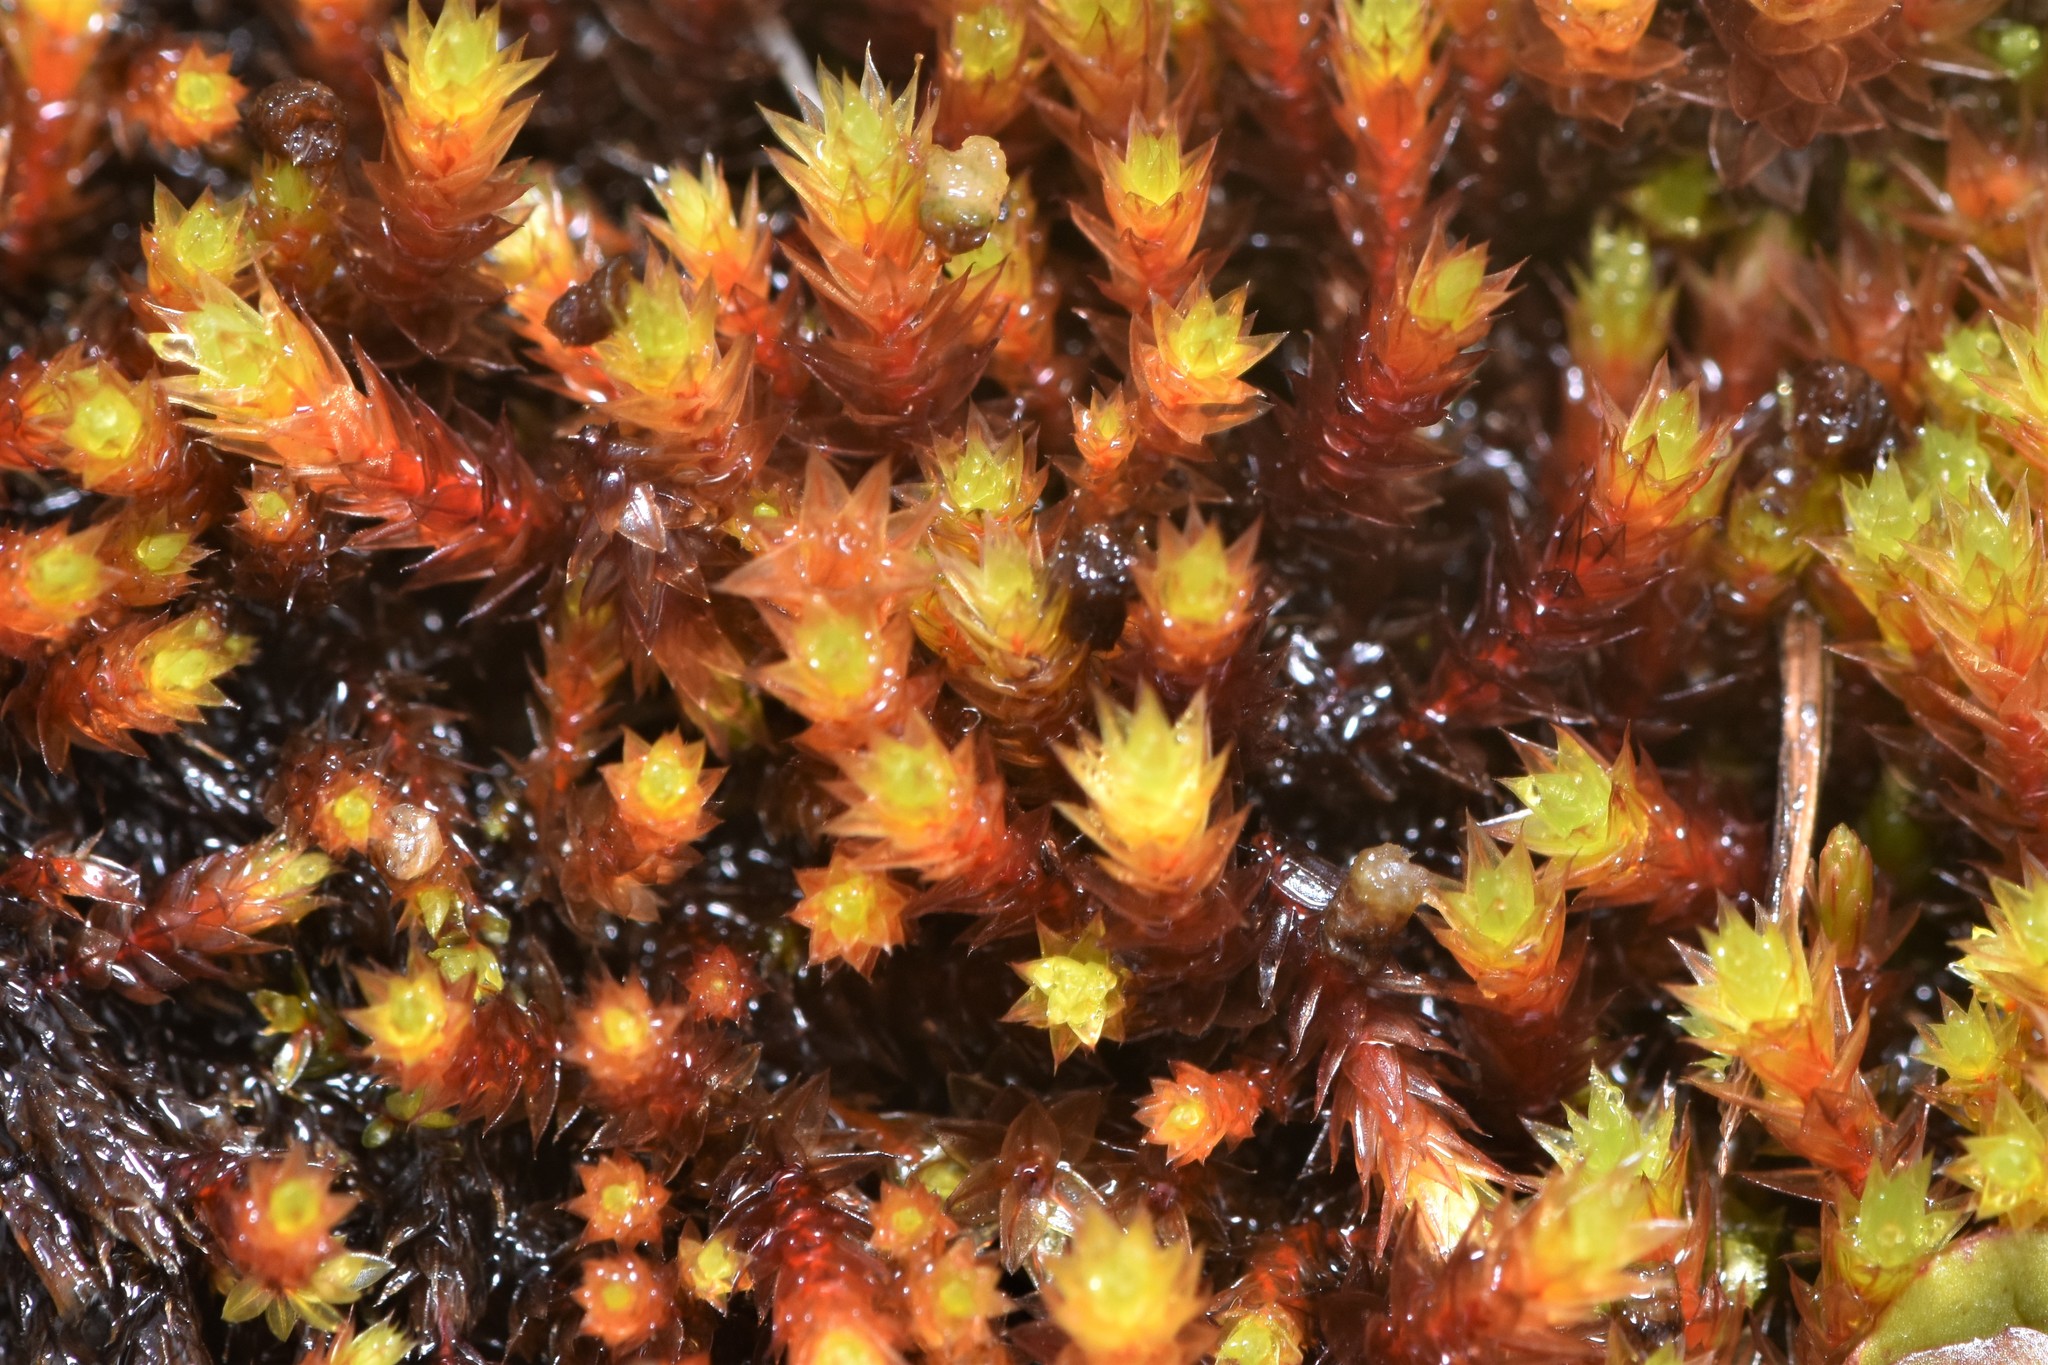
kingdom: Plantae
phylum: Bryophyta
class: Bryopsida
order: Bryales
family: Bryaceae
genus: Imbribryum
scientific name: Imbribryum torenii
